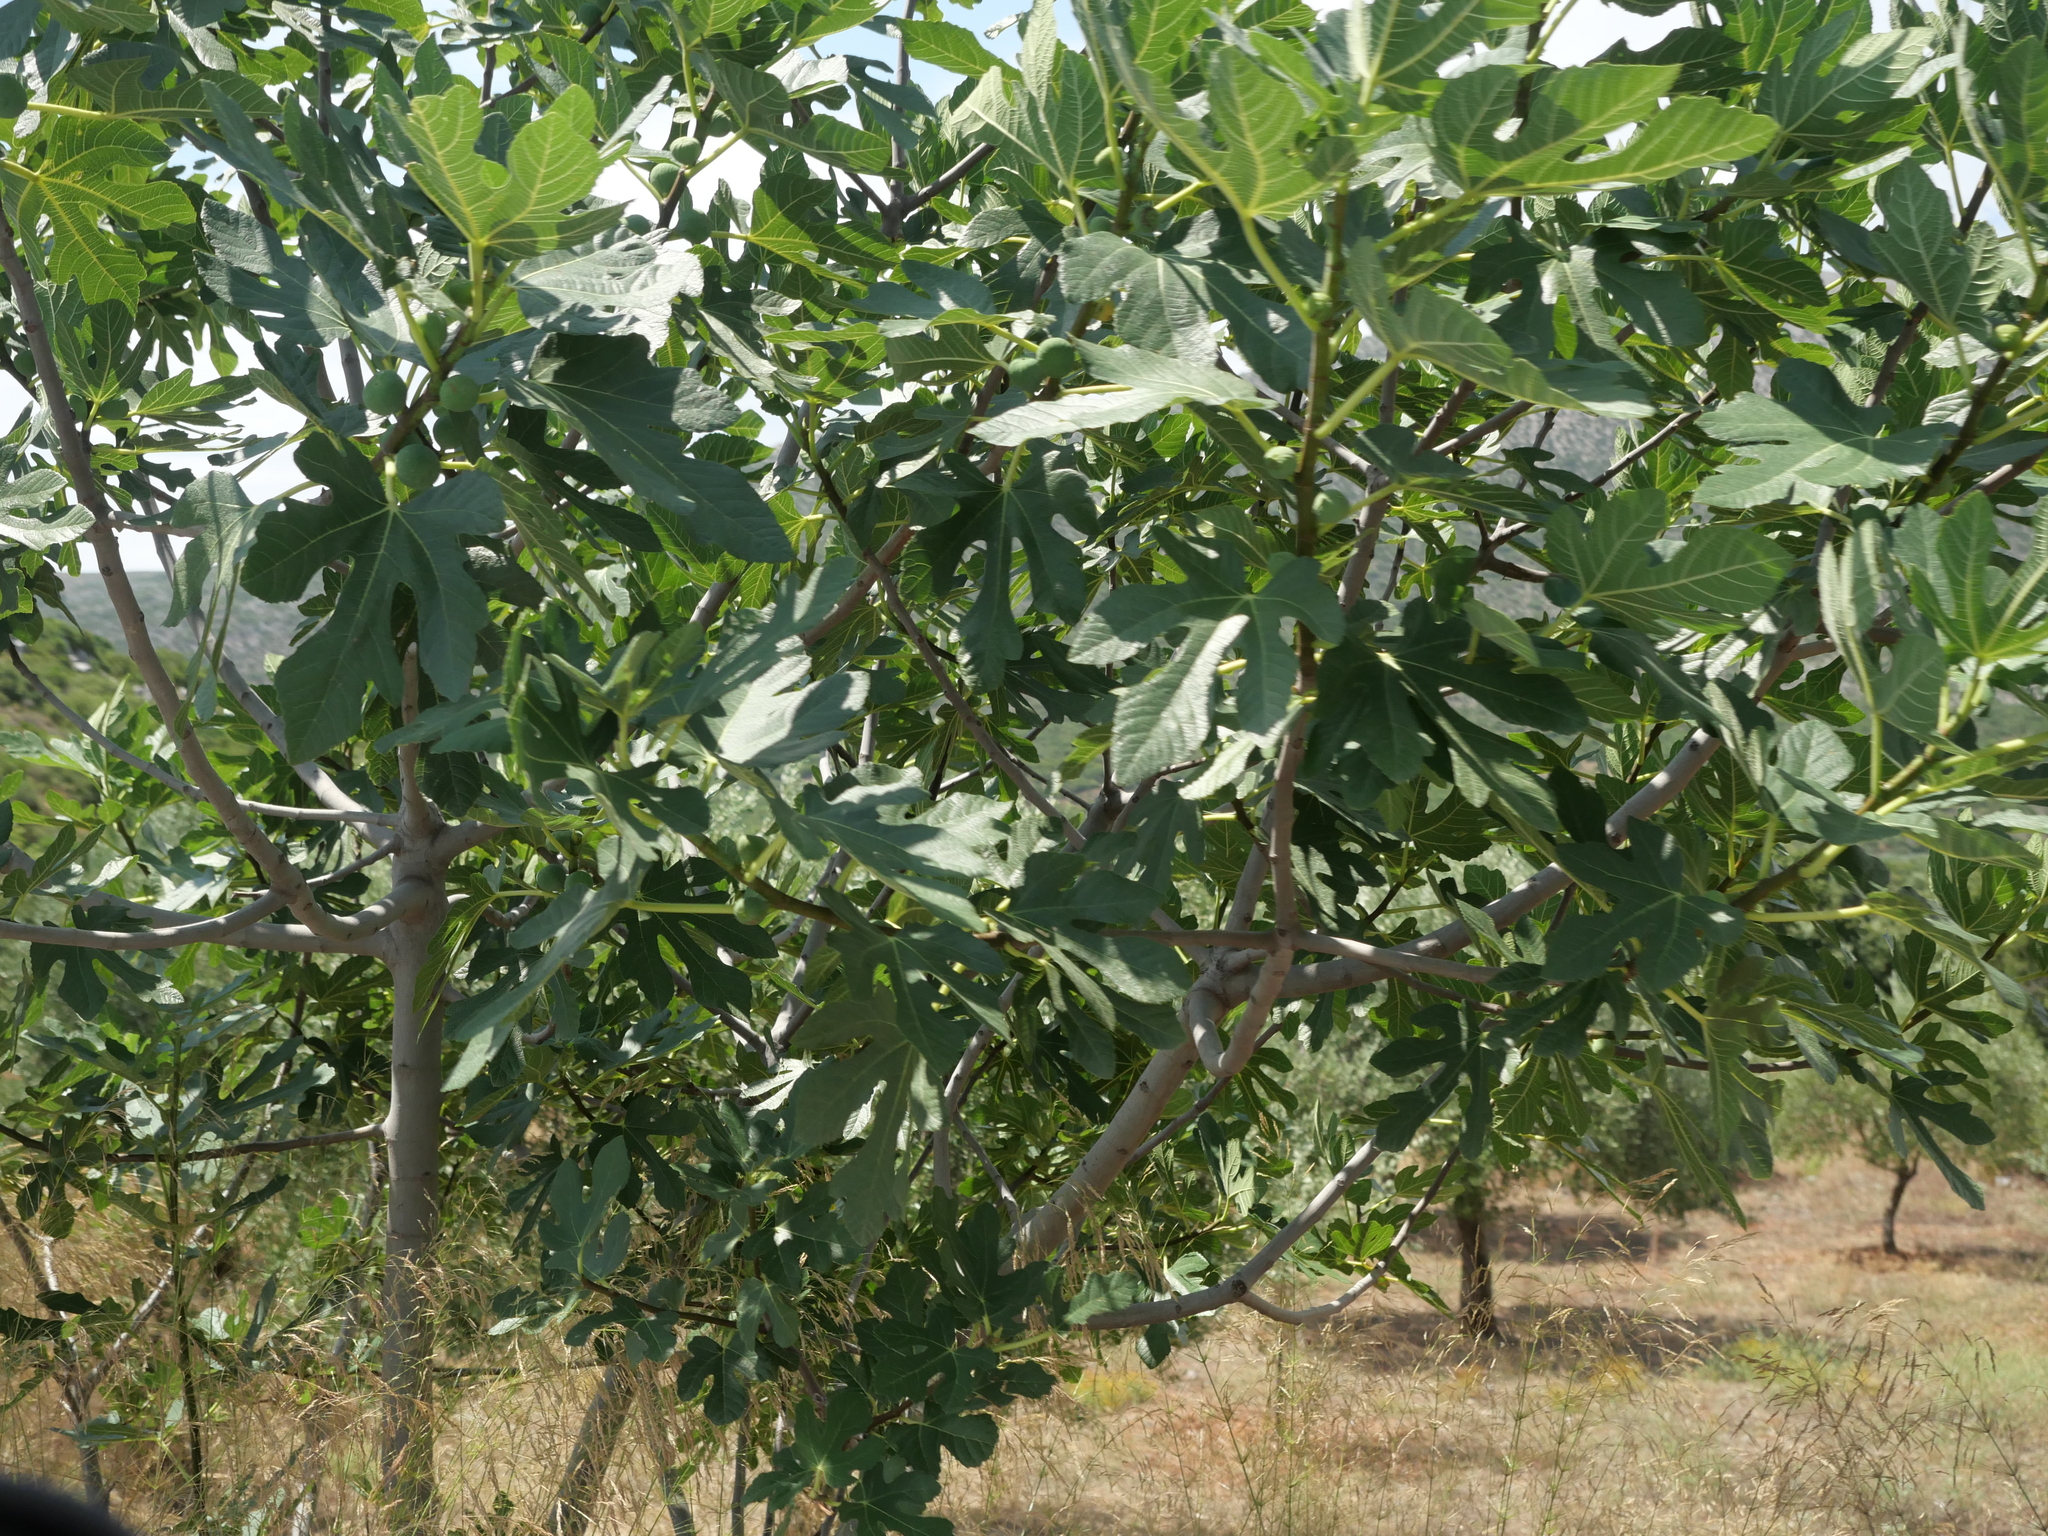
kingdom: Plantae
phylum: Tracheophyta
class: Magnoliopsida
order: Rosales
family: Moraceae
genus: Ficus
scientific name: Ficus carica
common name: Fig
